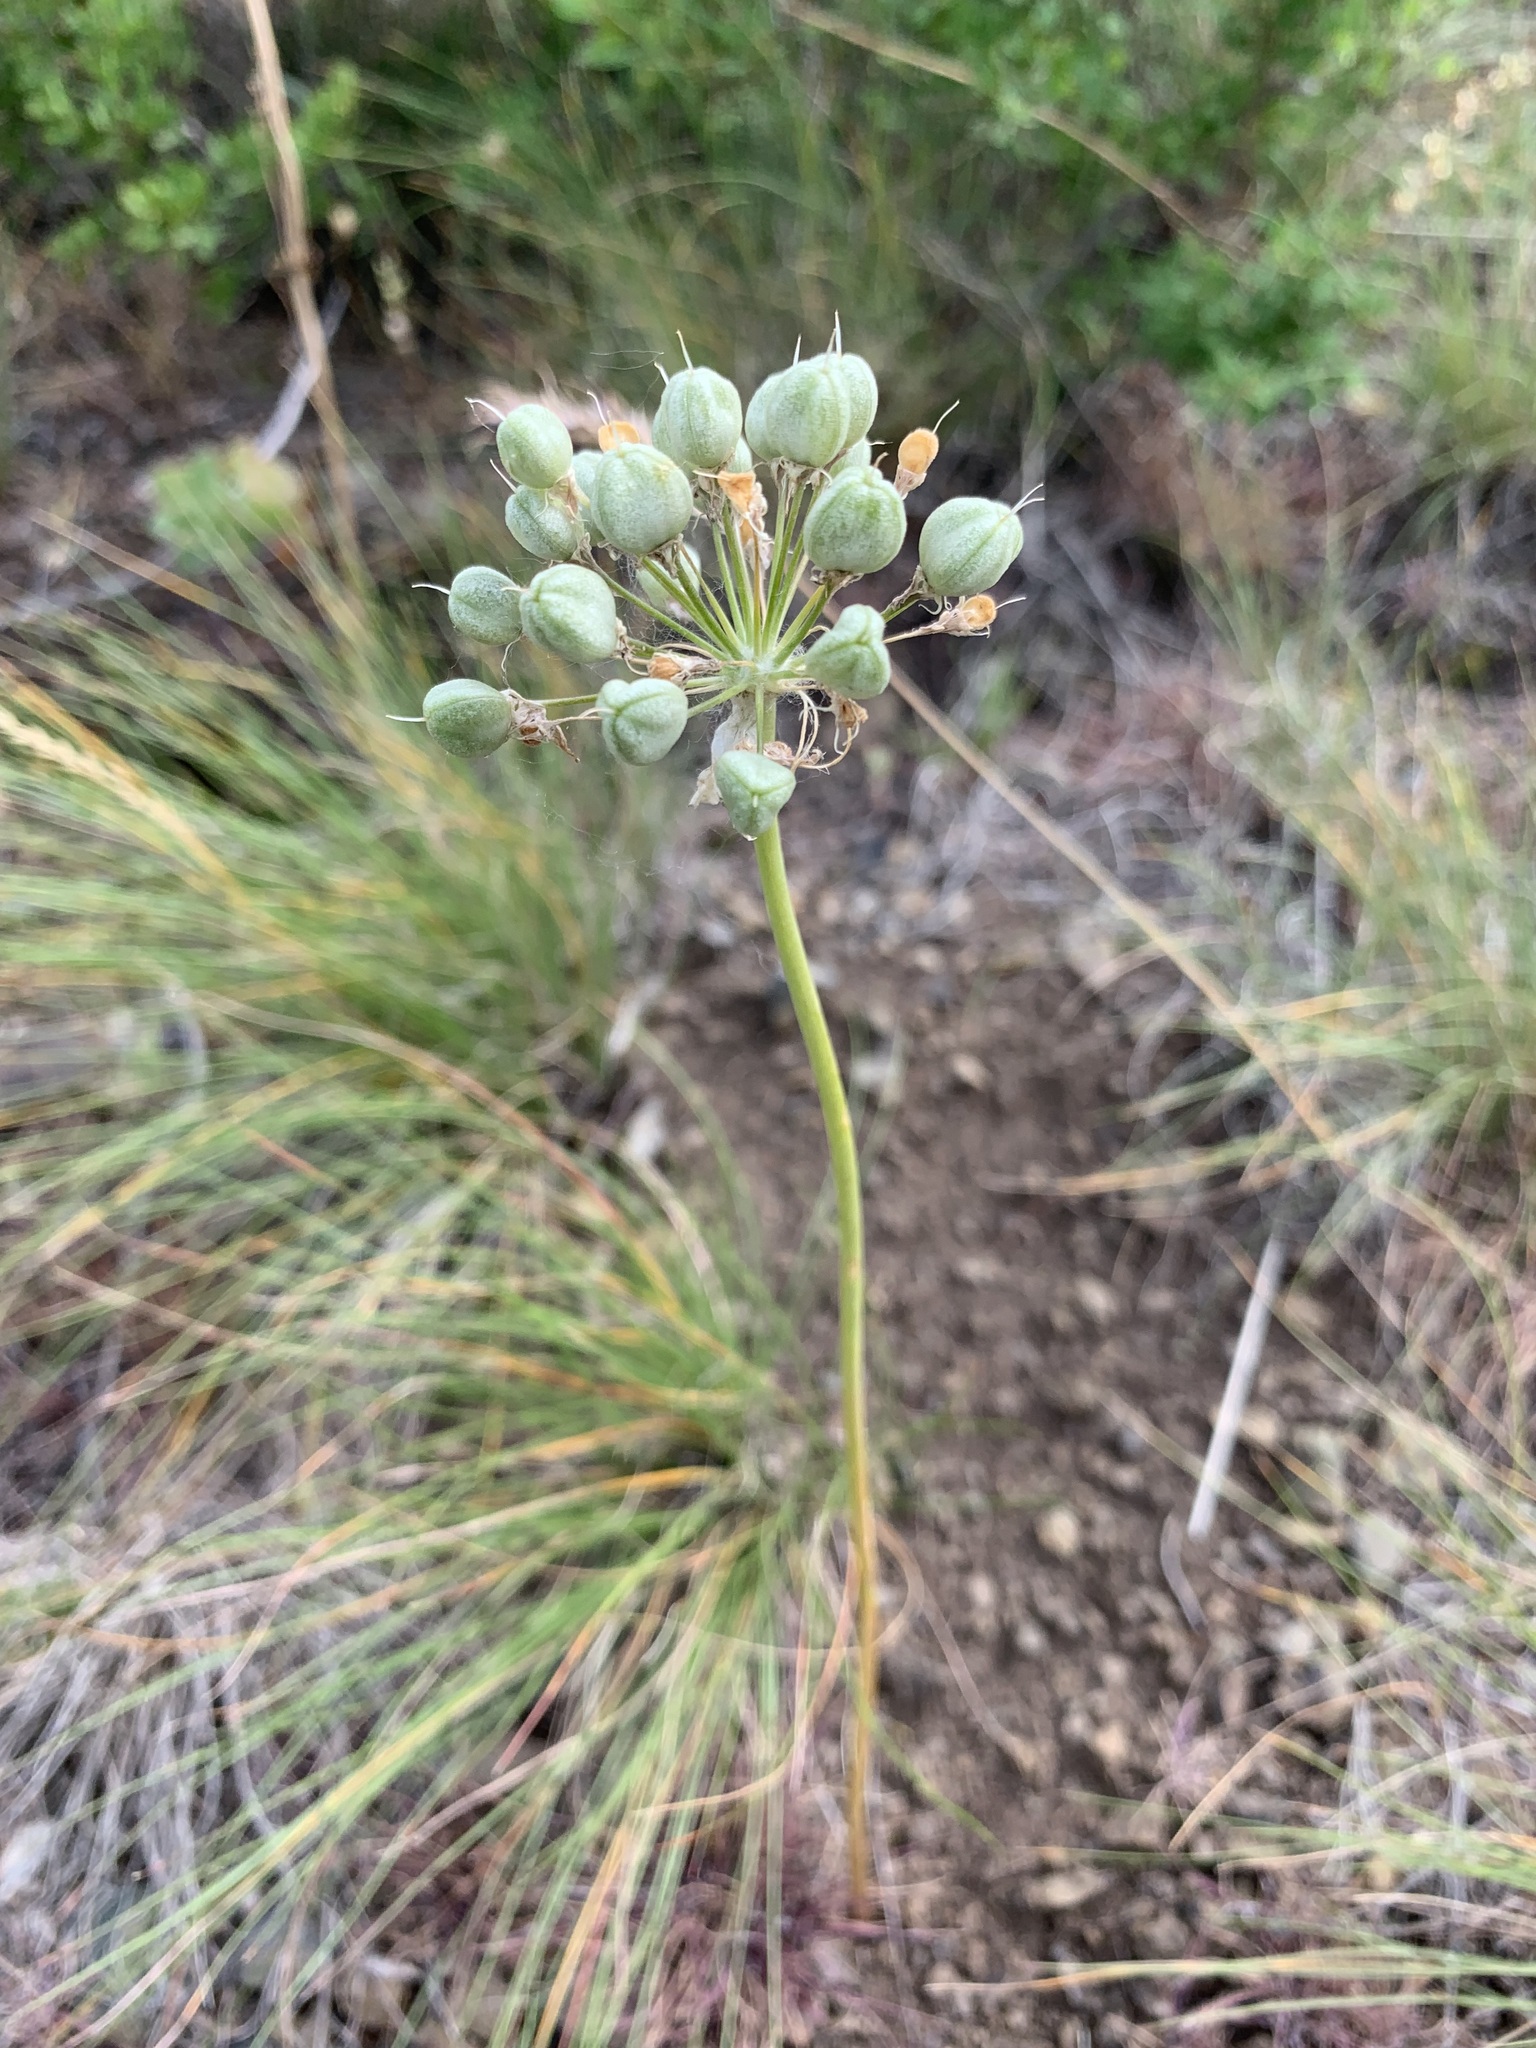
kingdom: Plantae
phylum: Tracheophyta
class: Liliopsida
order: Asparagales
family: Amaryllidaceae
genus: Allium
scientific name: Allium tulipifolium
